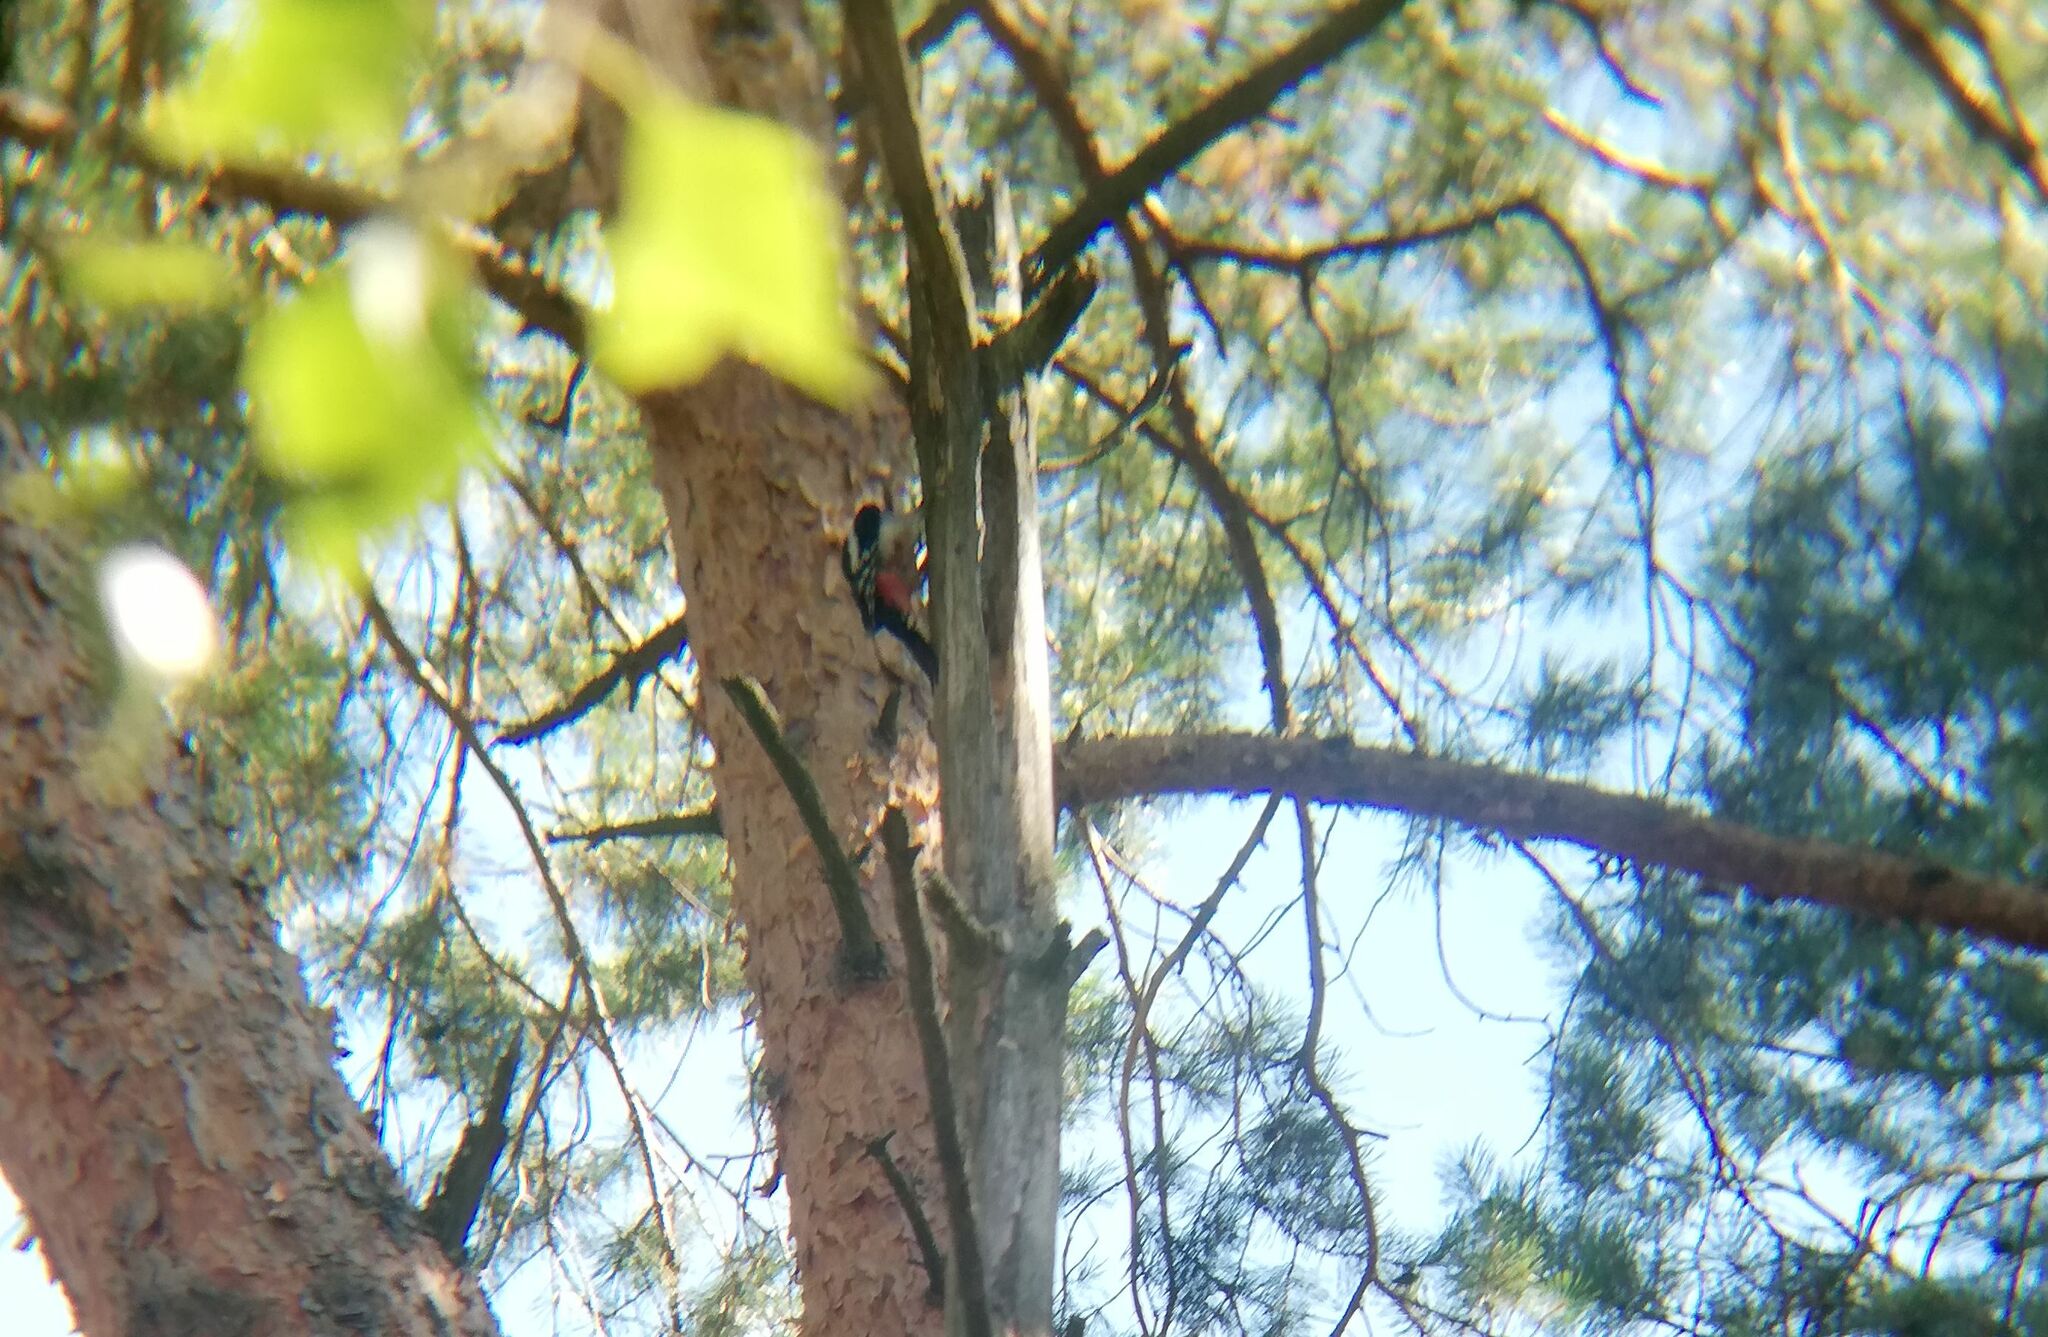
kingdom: Animalia
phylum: Chordata
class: Aves
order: Piciformes
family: Picidae
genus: Dendrocopos
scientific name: Dendrocopos major
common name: Great spotted woodpecker
